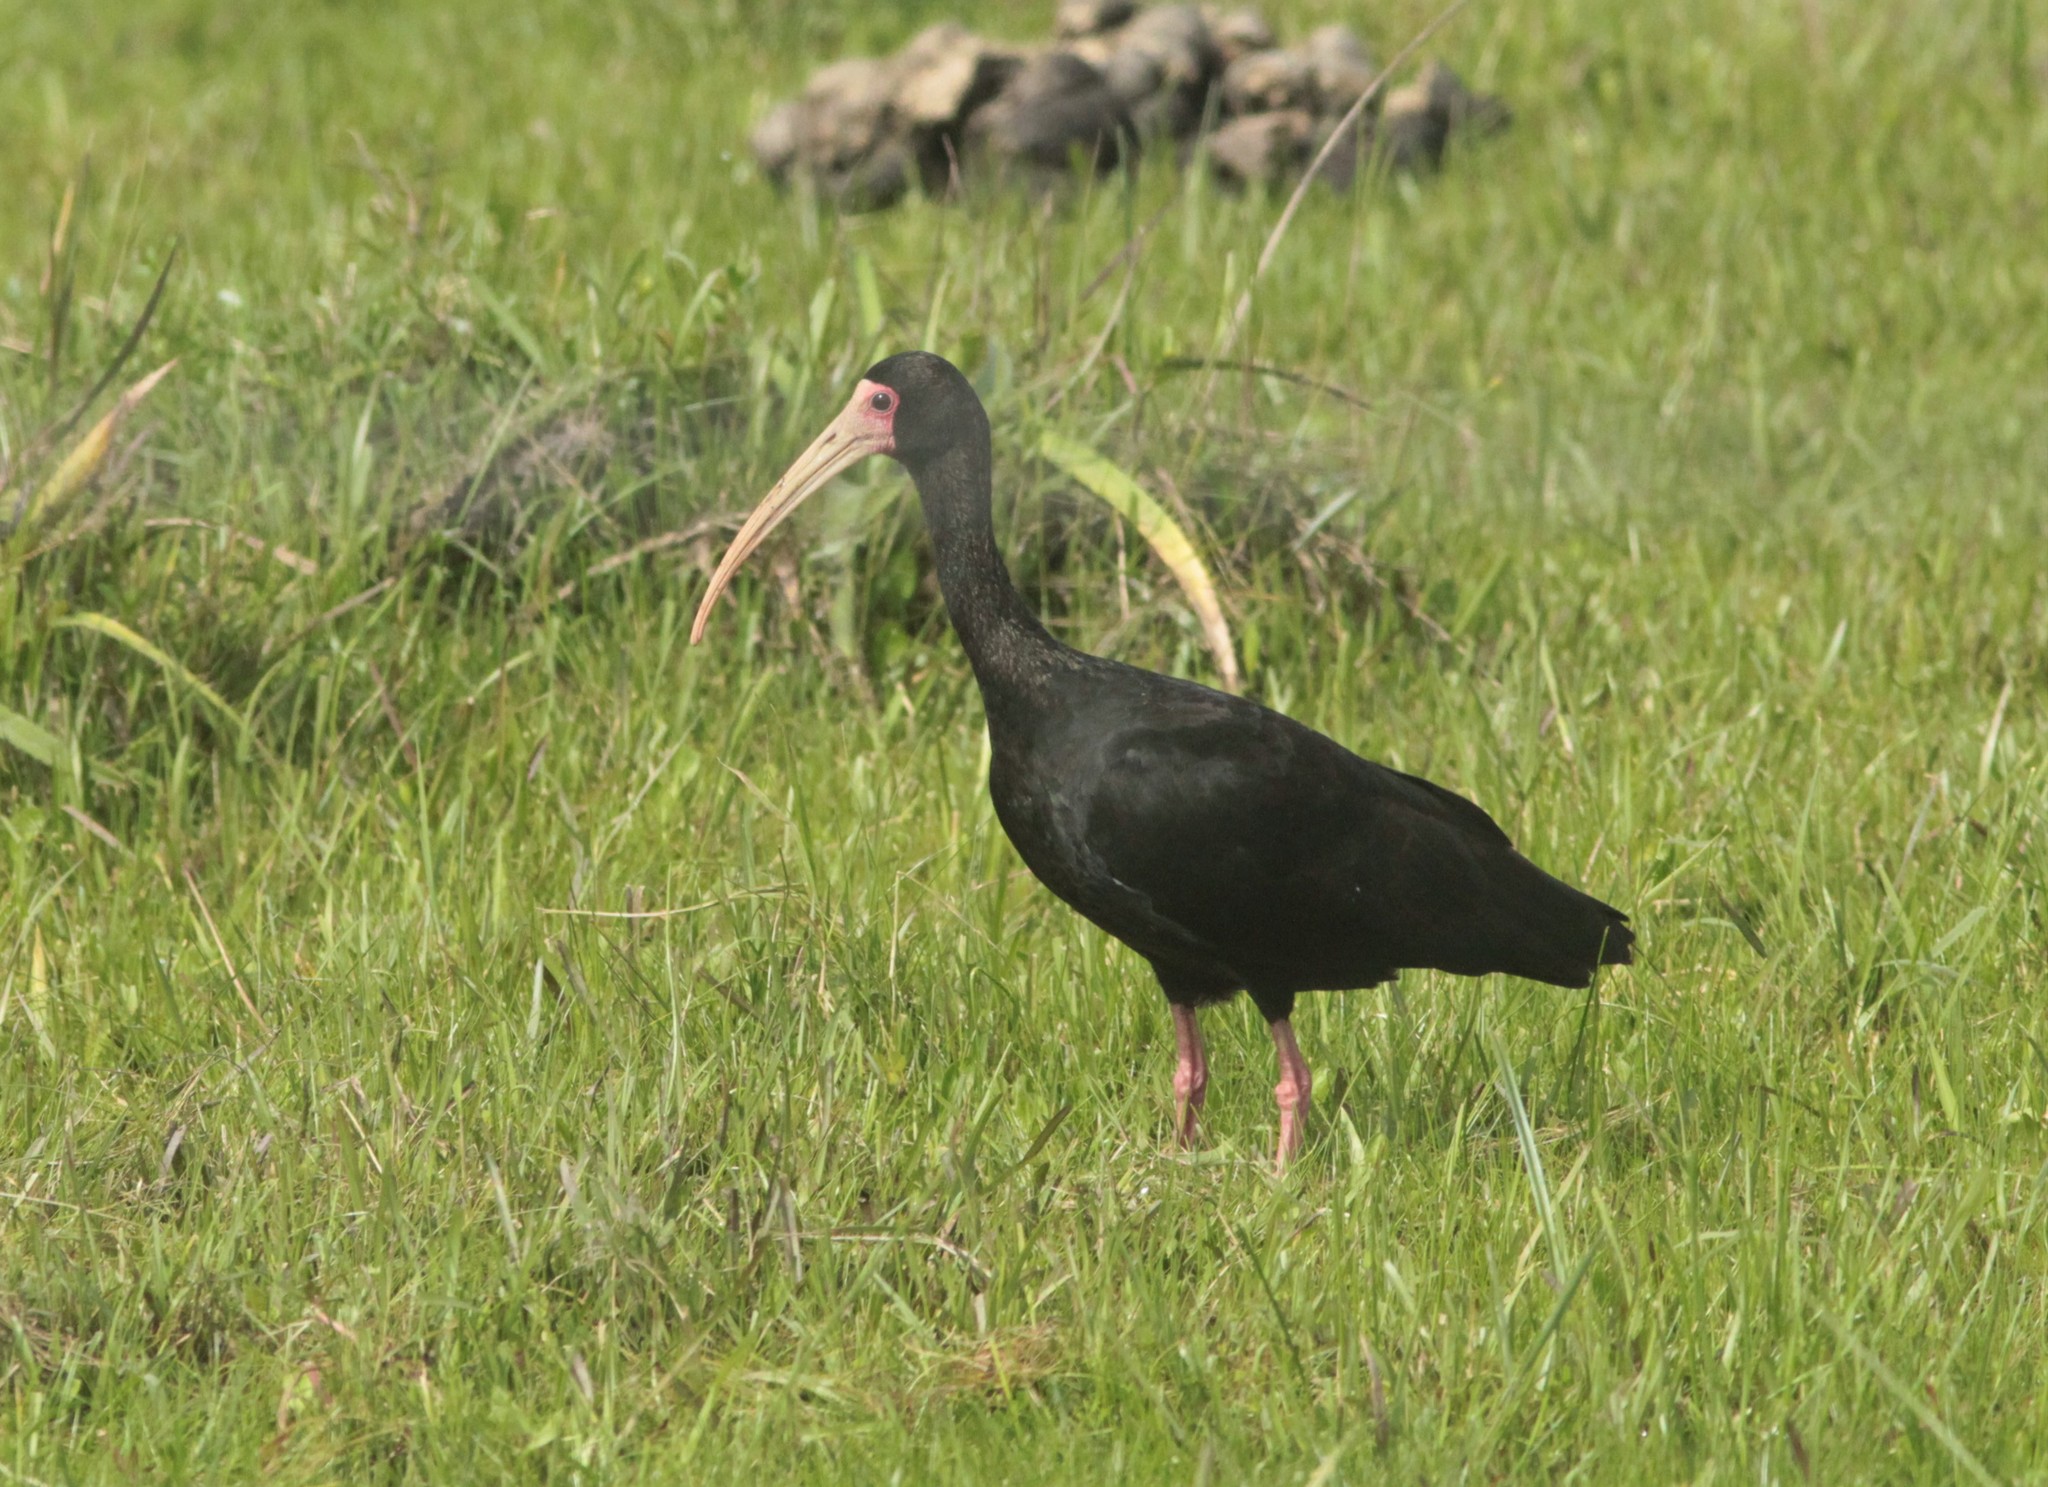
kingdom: Animalia
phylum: Chordata
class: Aves
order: Pelecaniformes
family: Threskiornithidae
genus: Phimosus
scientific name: Phimosus infuscatus
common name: Bare-faced ibis
